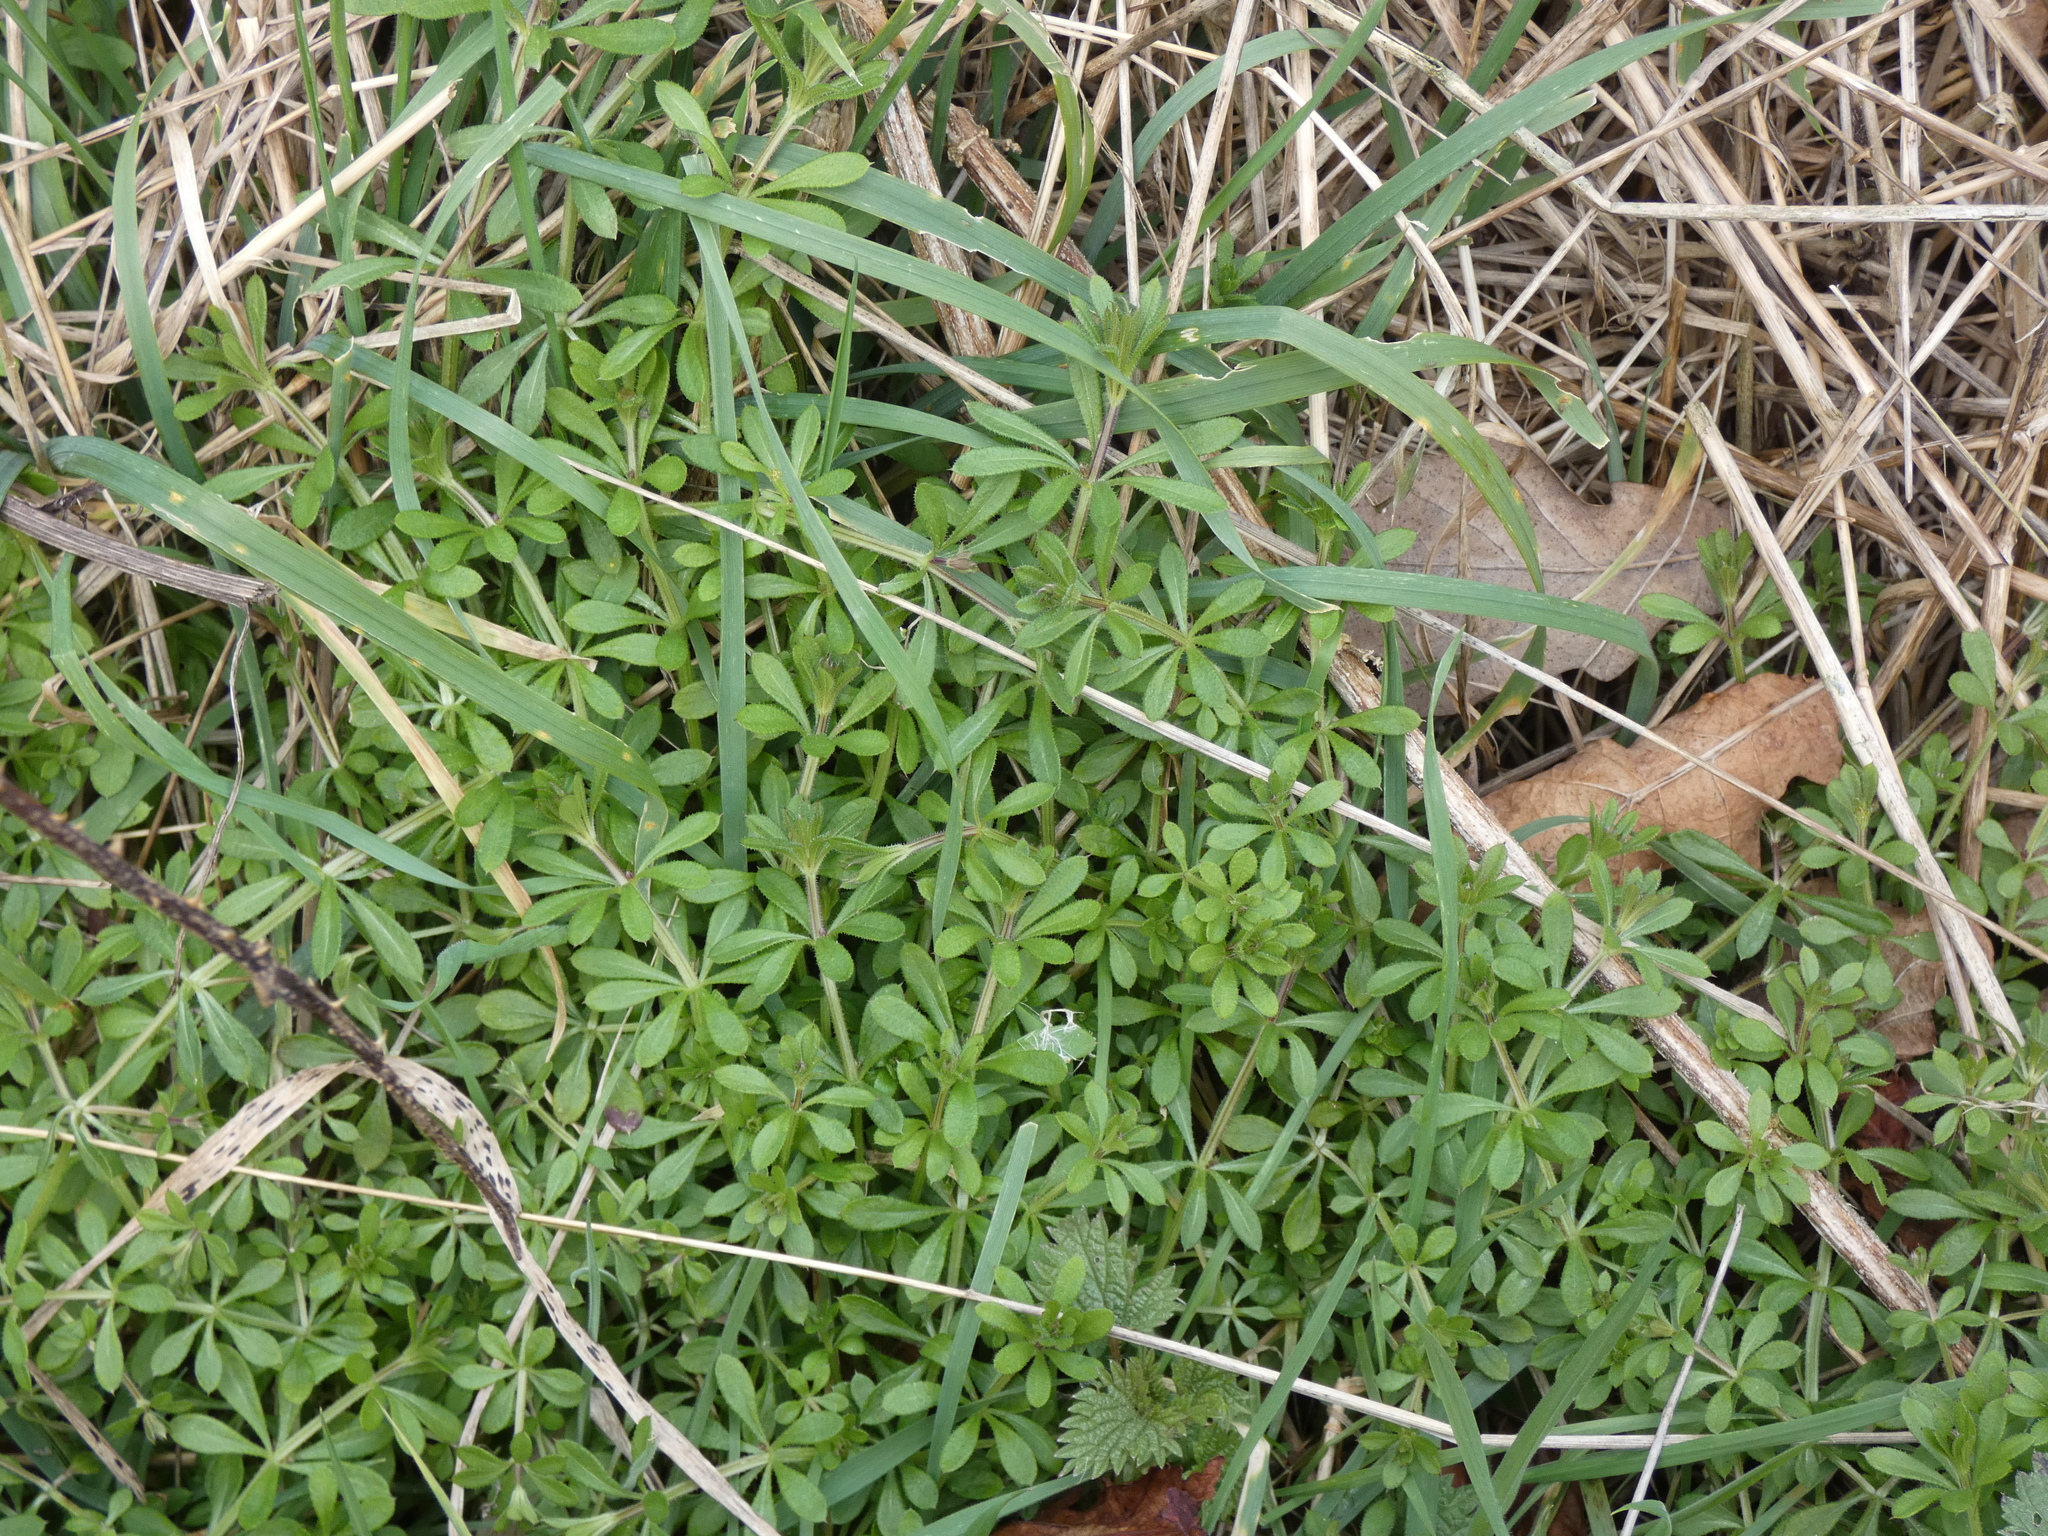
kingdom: Plantae
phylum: Tracheophyta
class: Magnoliopsida
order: Gentianales
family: Rubiaceae
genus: Galium
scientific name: Galium aparine
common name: Cleavers
